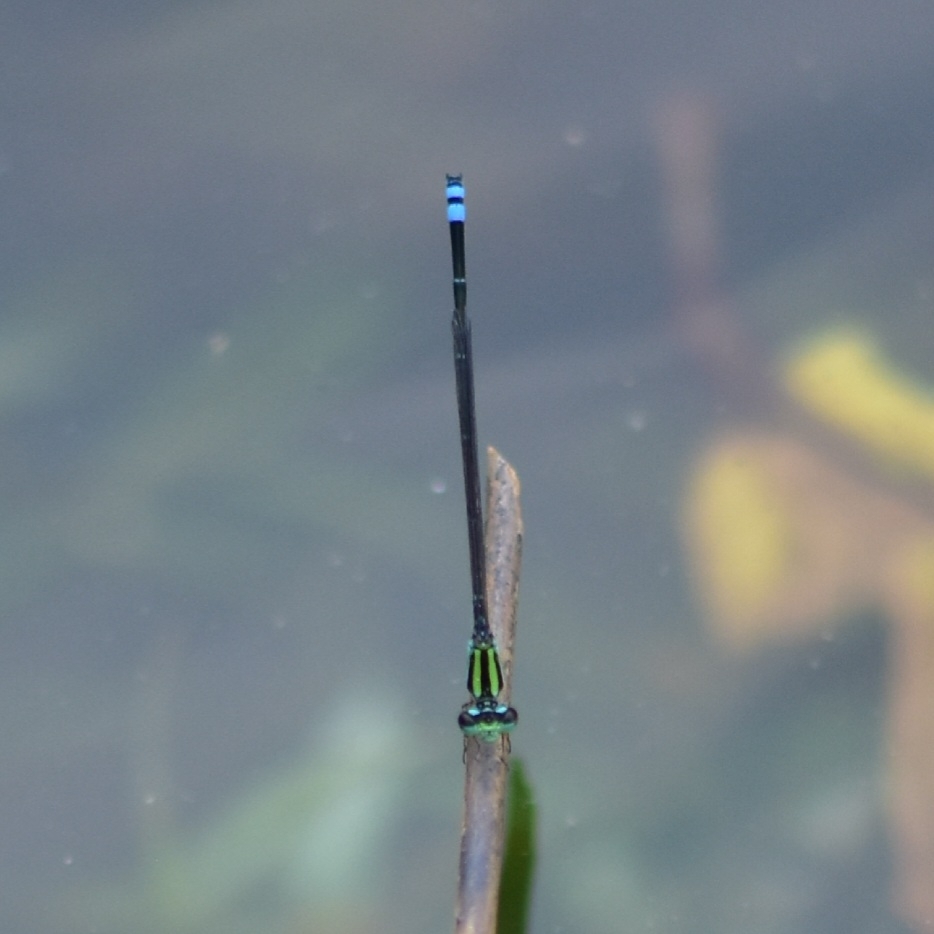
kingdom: Animalia
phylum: Arthropoda
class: Insecta
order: Odonata
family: Coenagrionidae
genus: Pseudagrion
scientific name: Pseudagrion indicum
